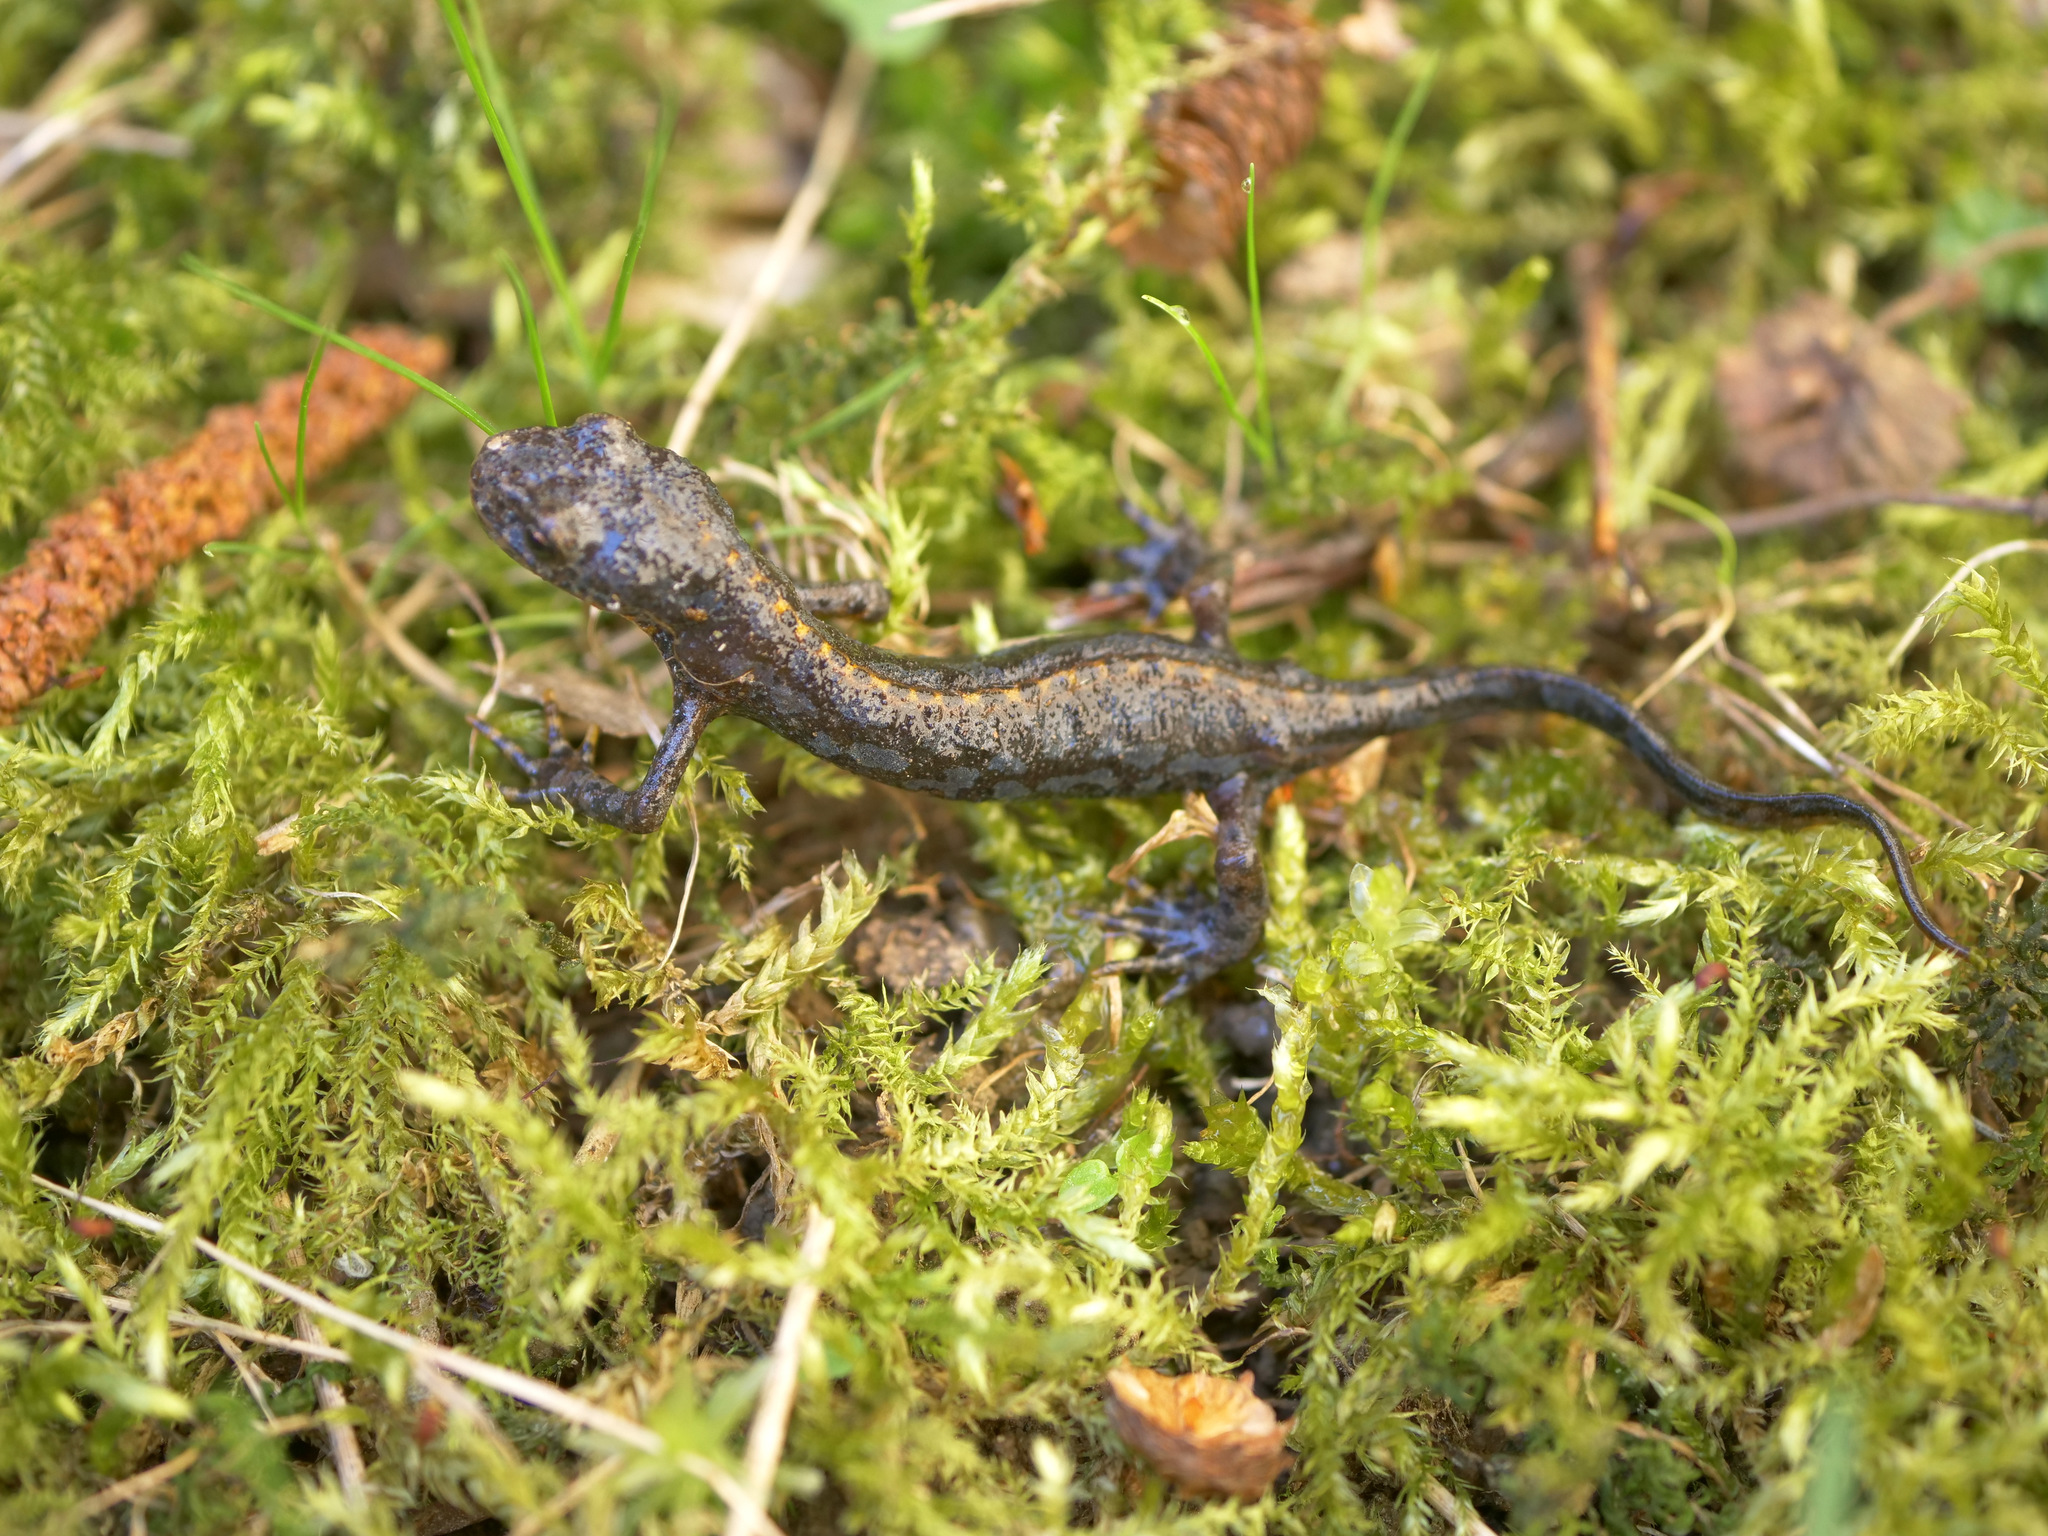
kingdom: Animalia
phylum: Chordata
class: Amphibia
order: Caudata
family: Salamandridae
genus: Ichthyosaura
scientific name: Ichthyosaura alpestris
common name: Alpine newt
